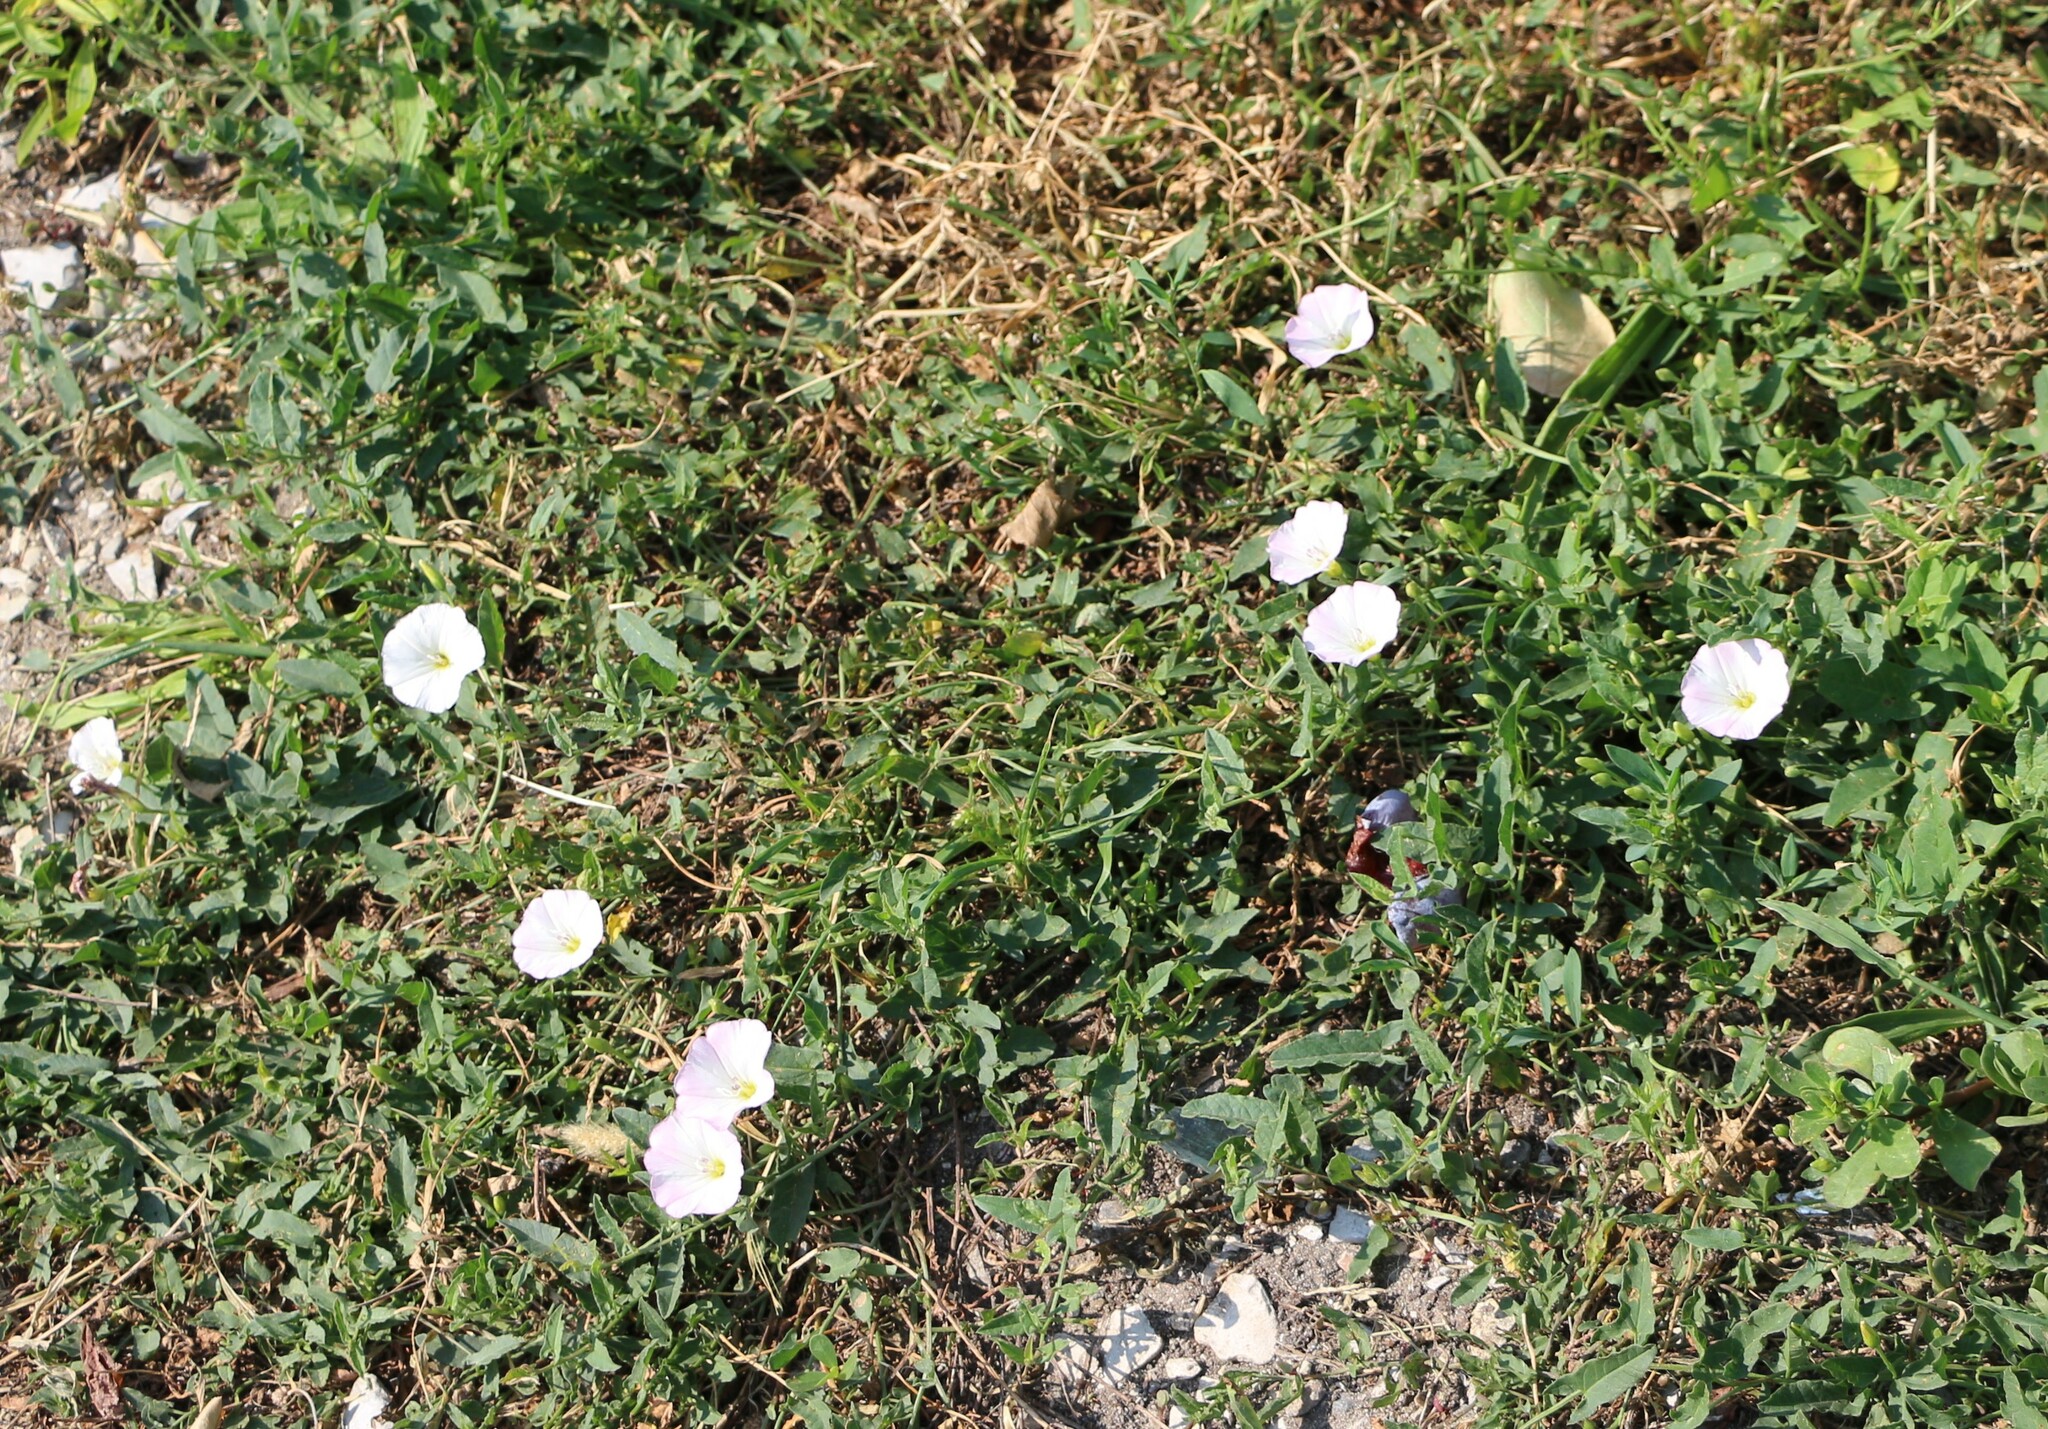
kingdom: Plantae
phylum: Tracheophyta
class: Magnoliopsida
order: Solanales
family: Convolvulaceae
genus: Convolvulus
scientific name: Convolvulus arvensis
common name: Field bindweed
